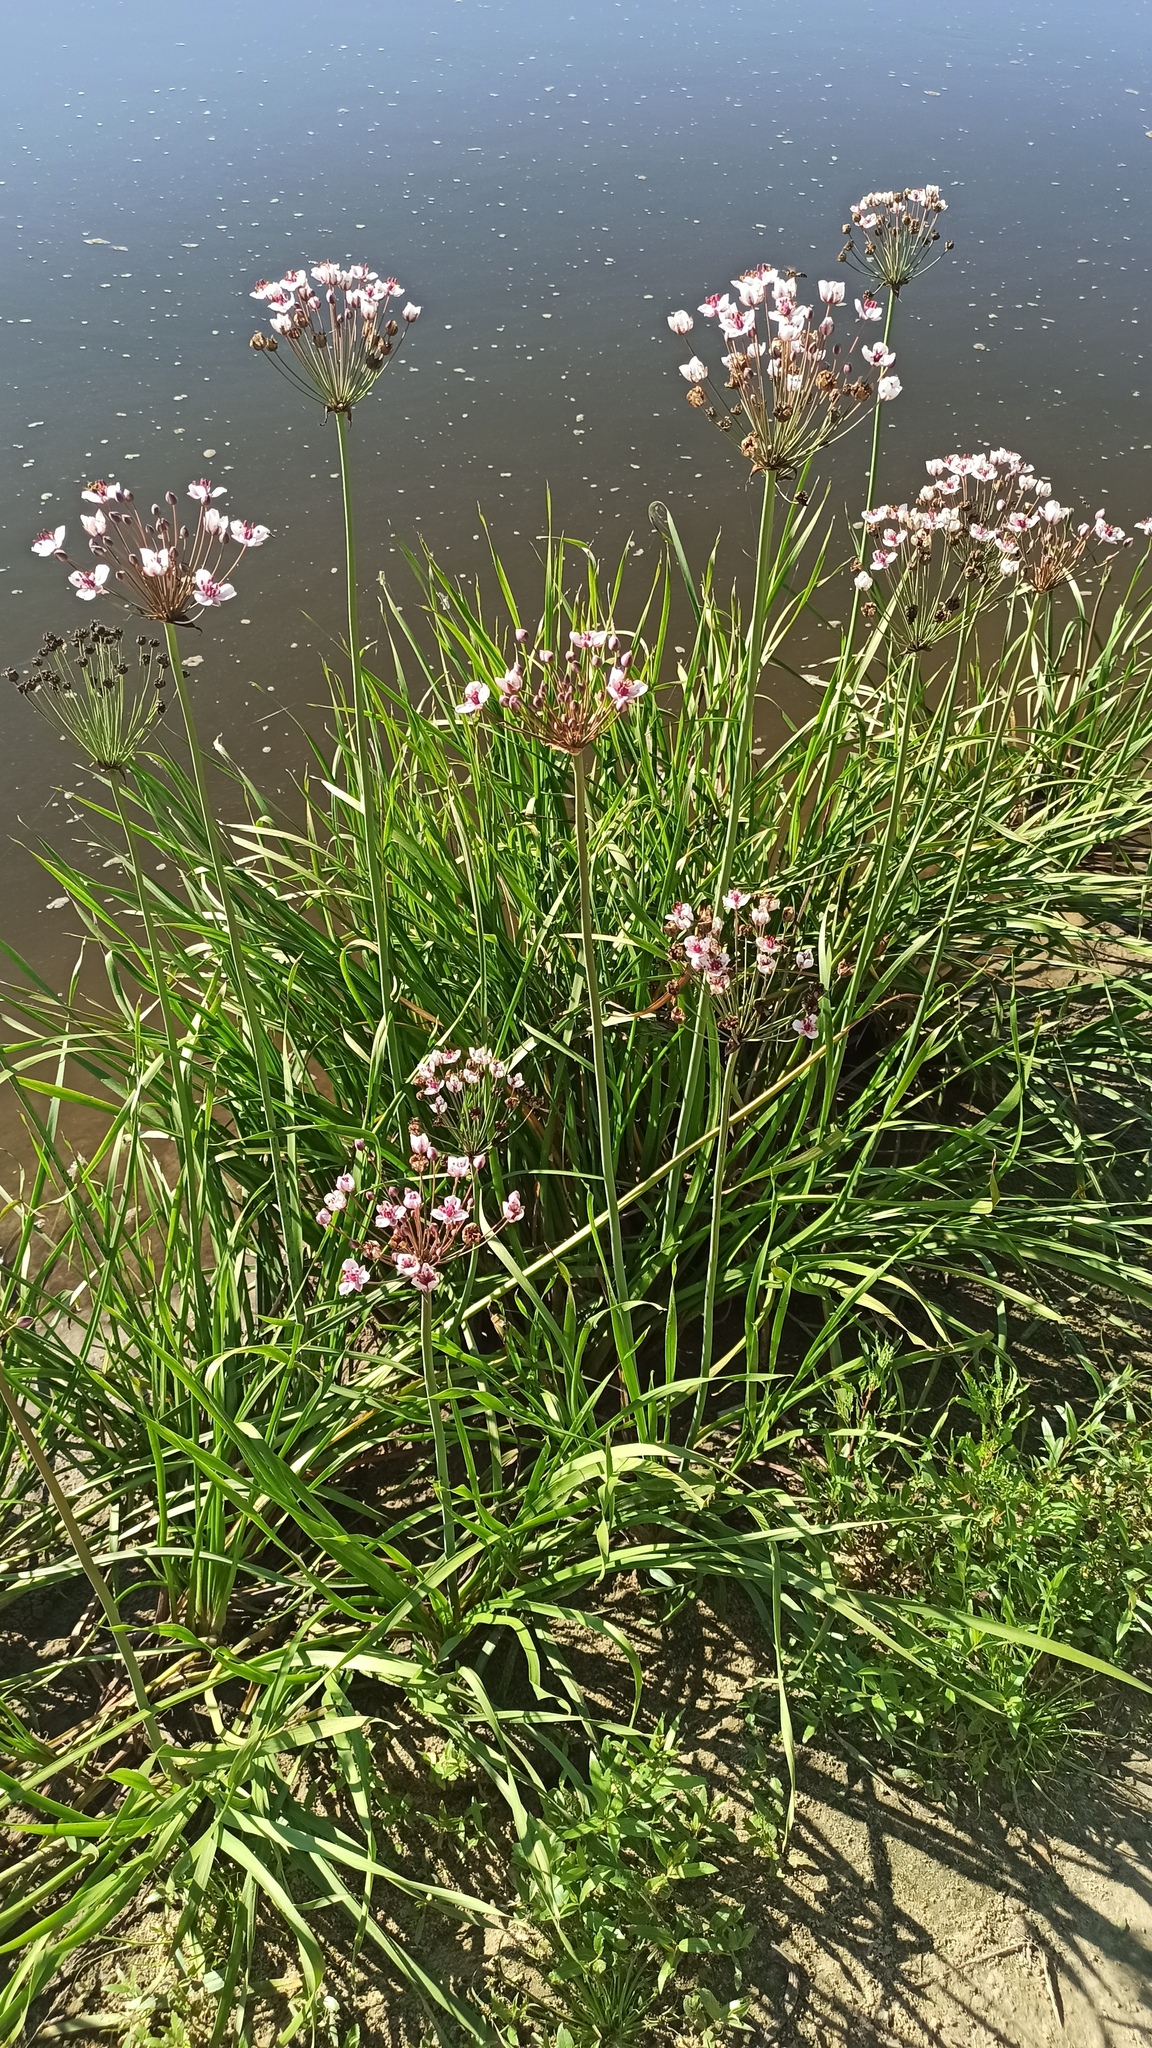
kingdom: Plantae
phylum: Tracheophyta
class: Liliopsida
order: Alismatales
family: Butomaceae
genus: Butomus
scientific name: Butomus umbellatus
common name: Flowering-rush
